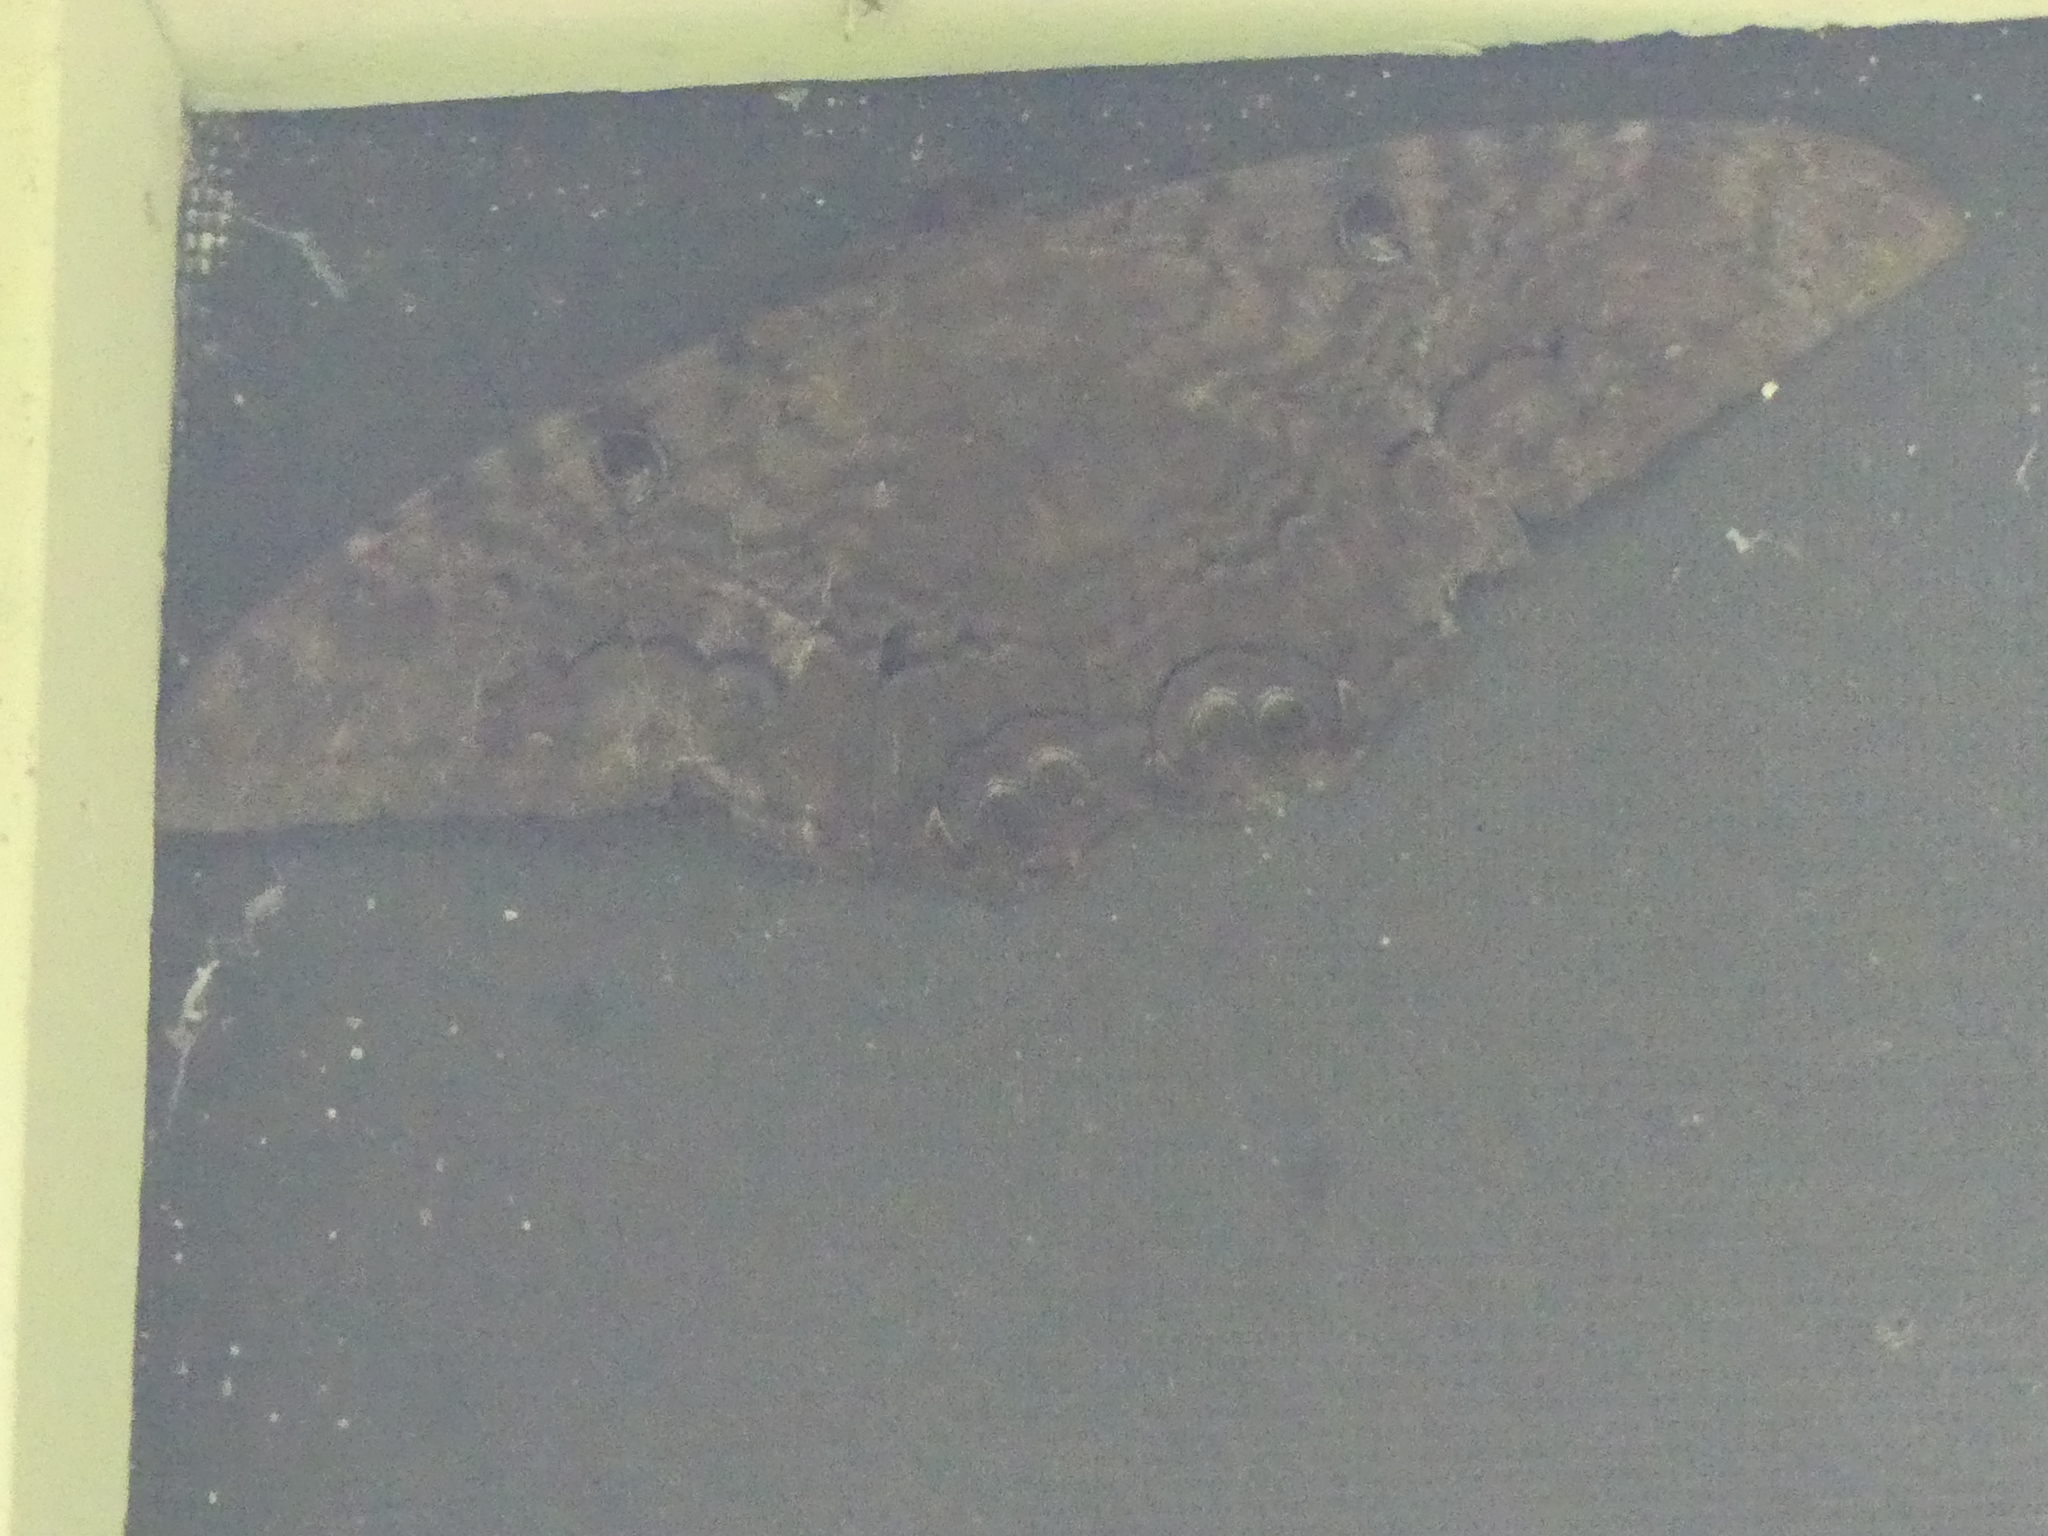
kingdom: Animalia
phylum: Arthropoda
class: Insecta
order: Lepidoptera
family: Erebidae
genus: Ascalapha
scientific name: Ascalapha odorata
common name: Black witch
